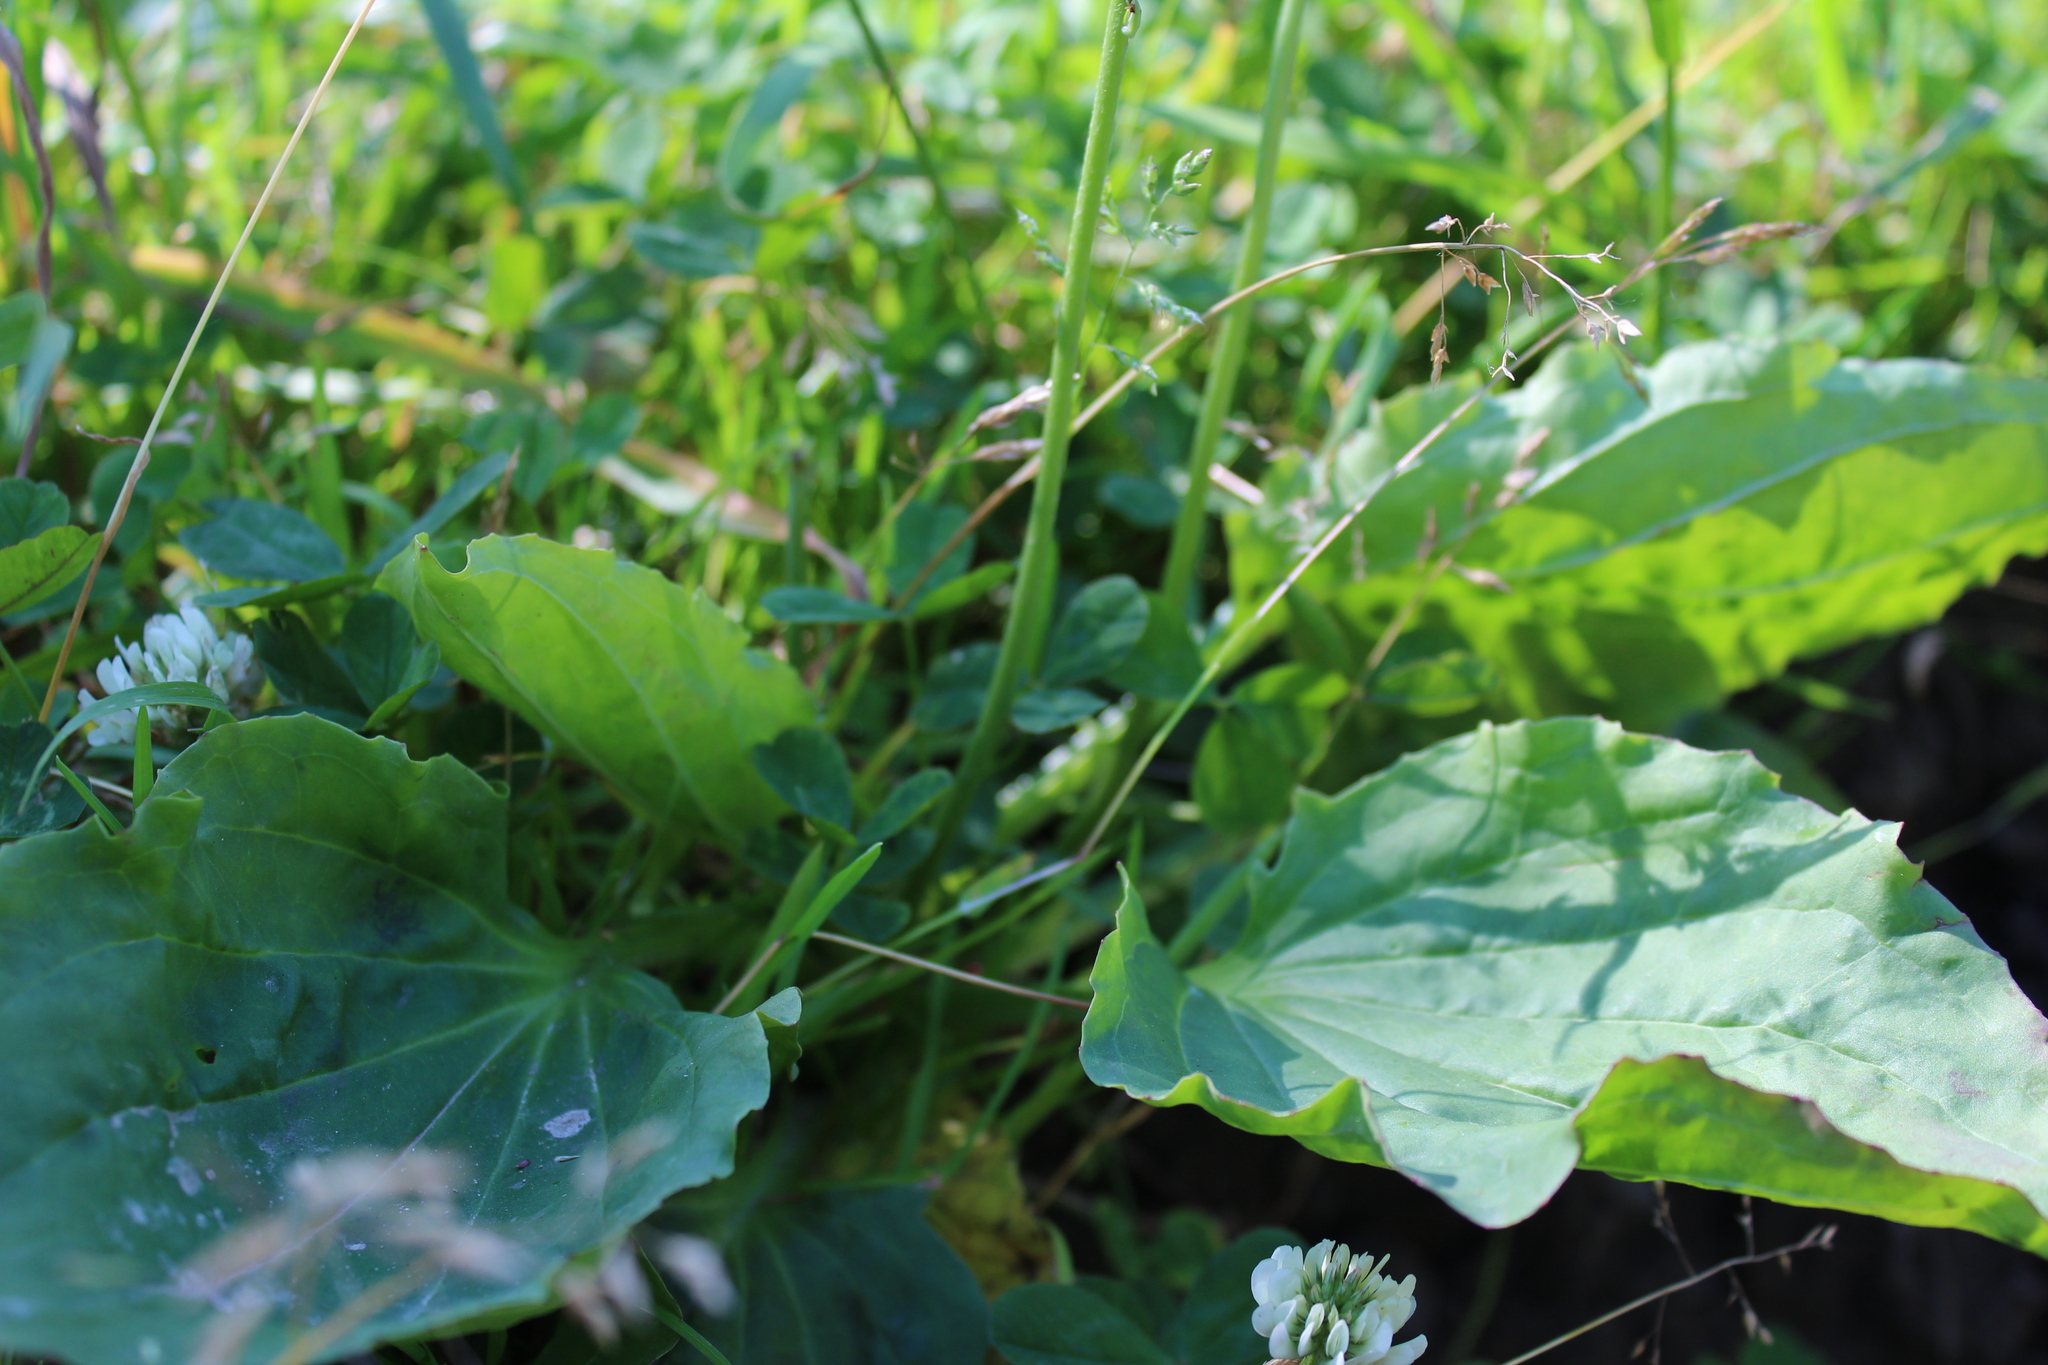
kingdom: Plantae
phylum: Tracheophyta
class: Magnoliopsida
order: Lamiales
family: Plantaginaceae
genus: Plantago
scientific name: Plantago major
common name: Common plantain
